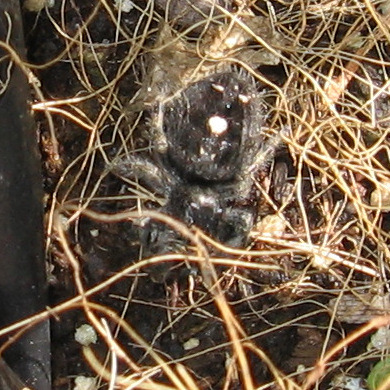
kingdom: Animalia
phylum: Arthropoda
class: Arachnida
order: Araneae
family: Salticidae
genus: Phidippus
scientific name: Phidippus audax
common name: Bold jumper
